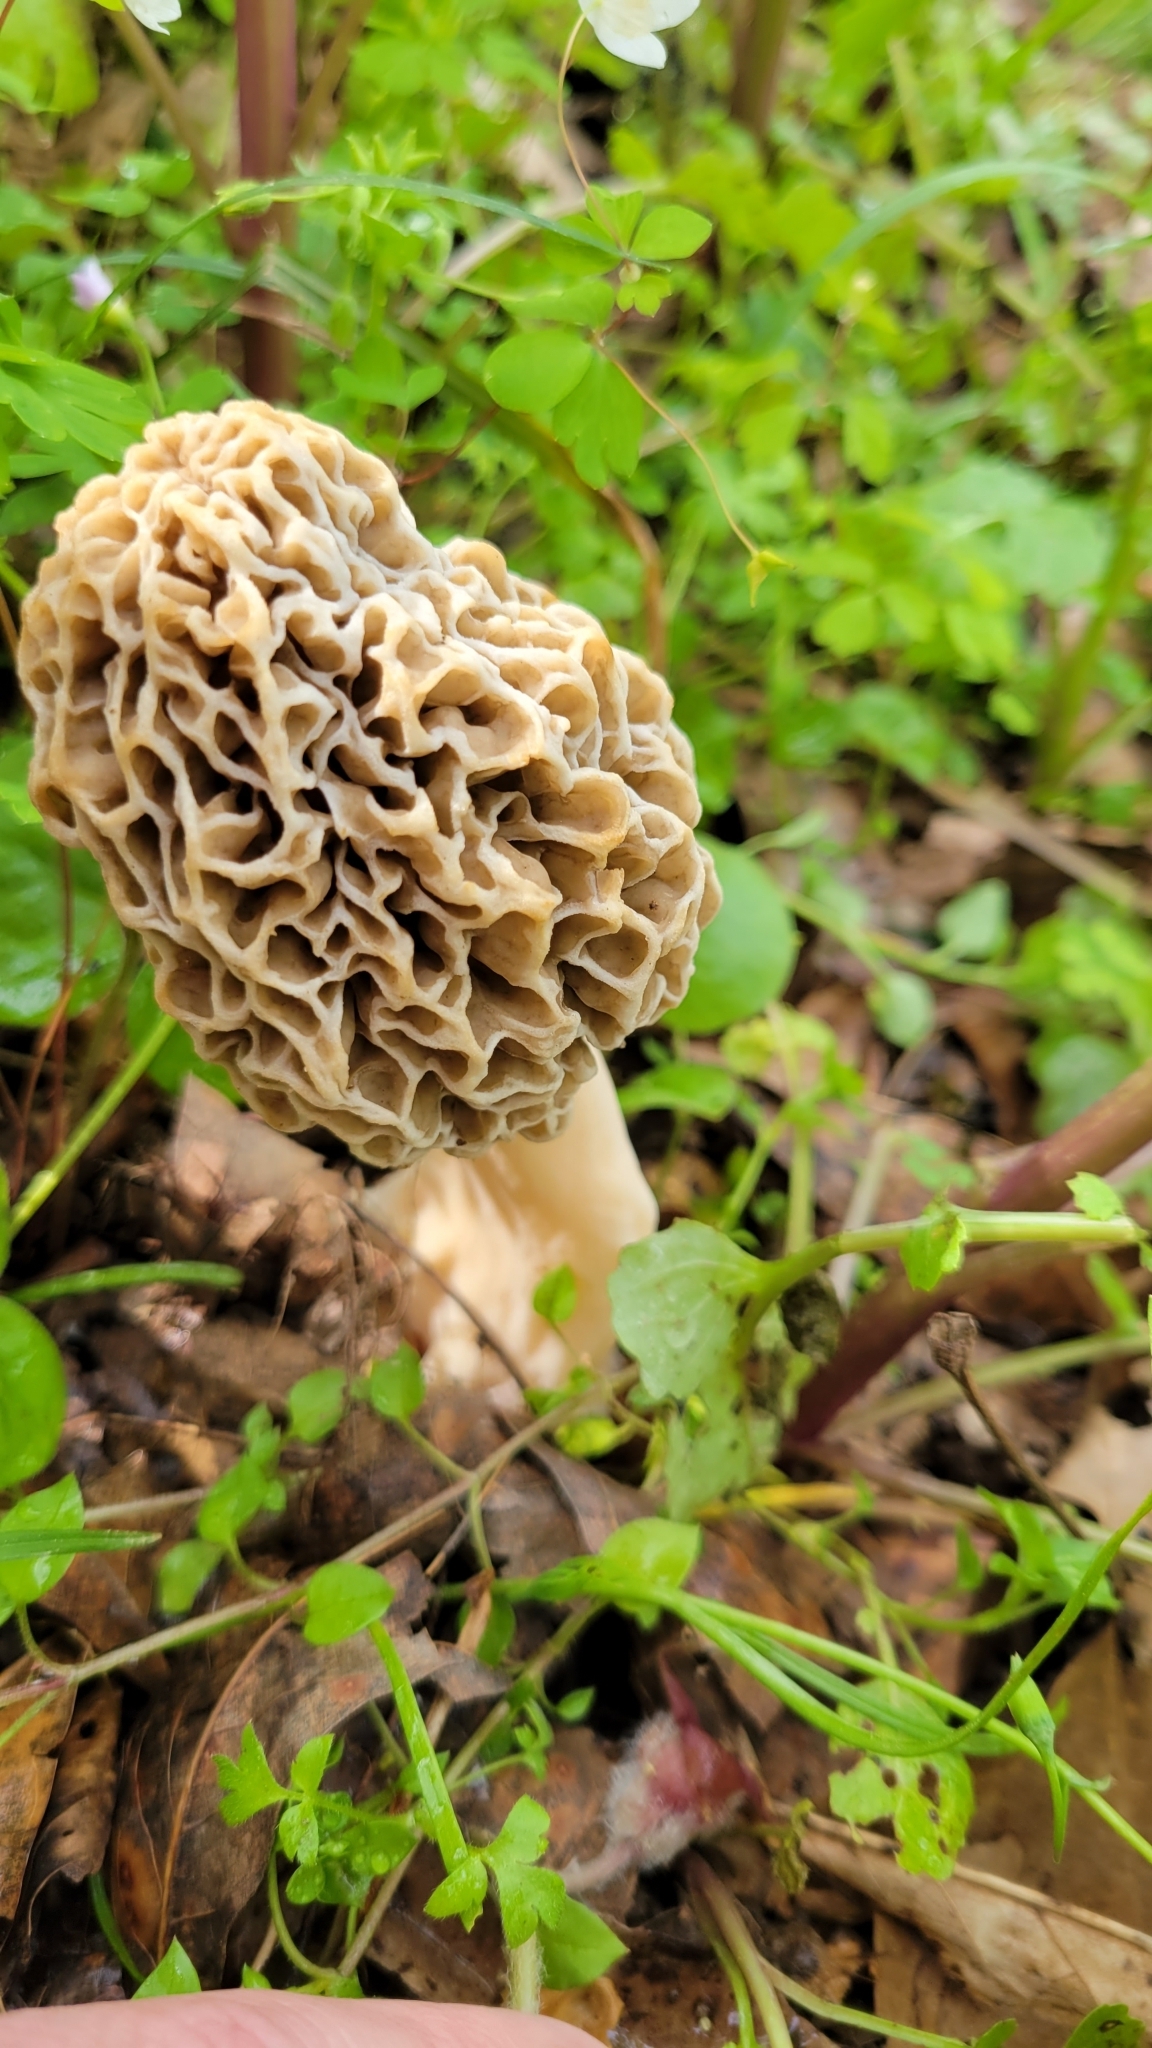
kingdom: Fungi
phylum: Ascomycota
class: Pezizomycetes
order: Pezizales
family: Morchellaceae
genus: Morchella
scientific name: Morchella americana
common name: White morel
